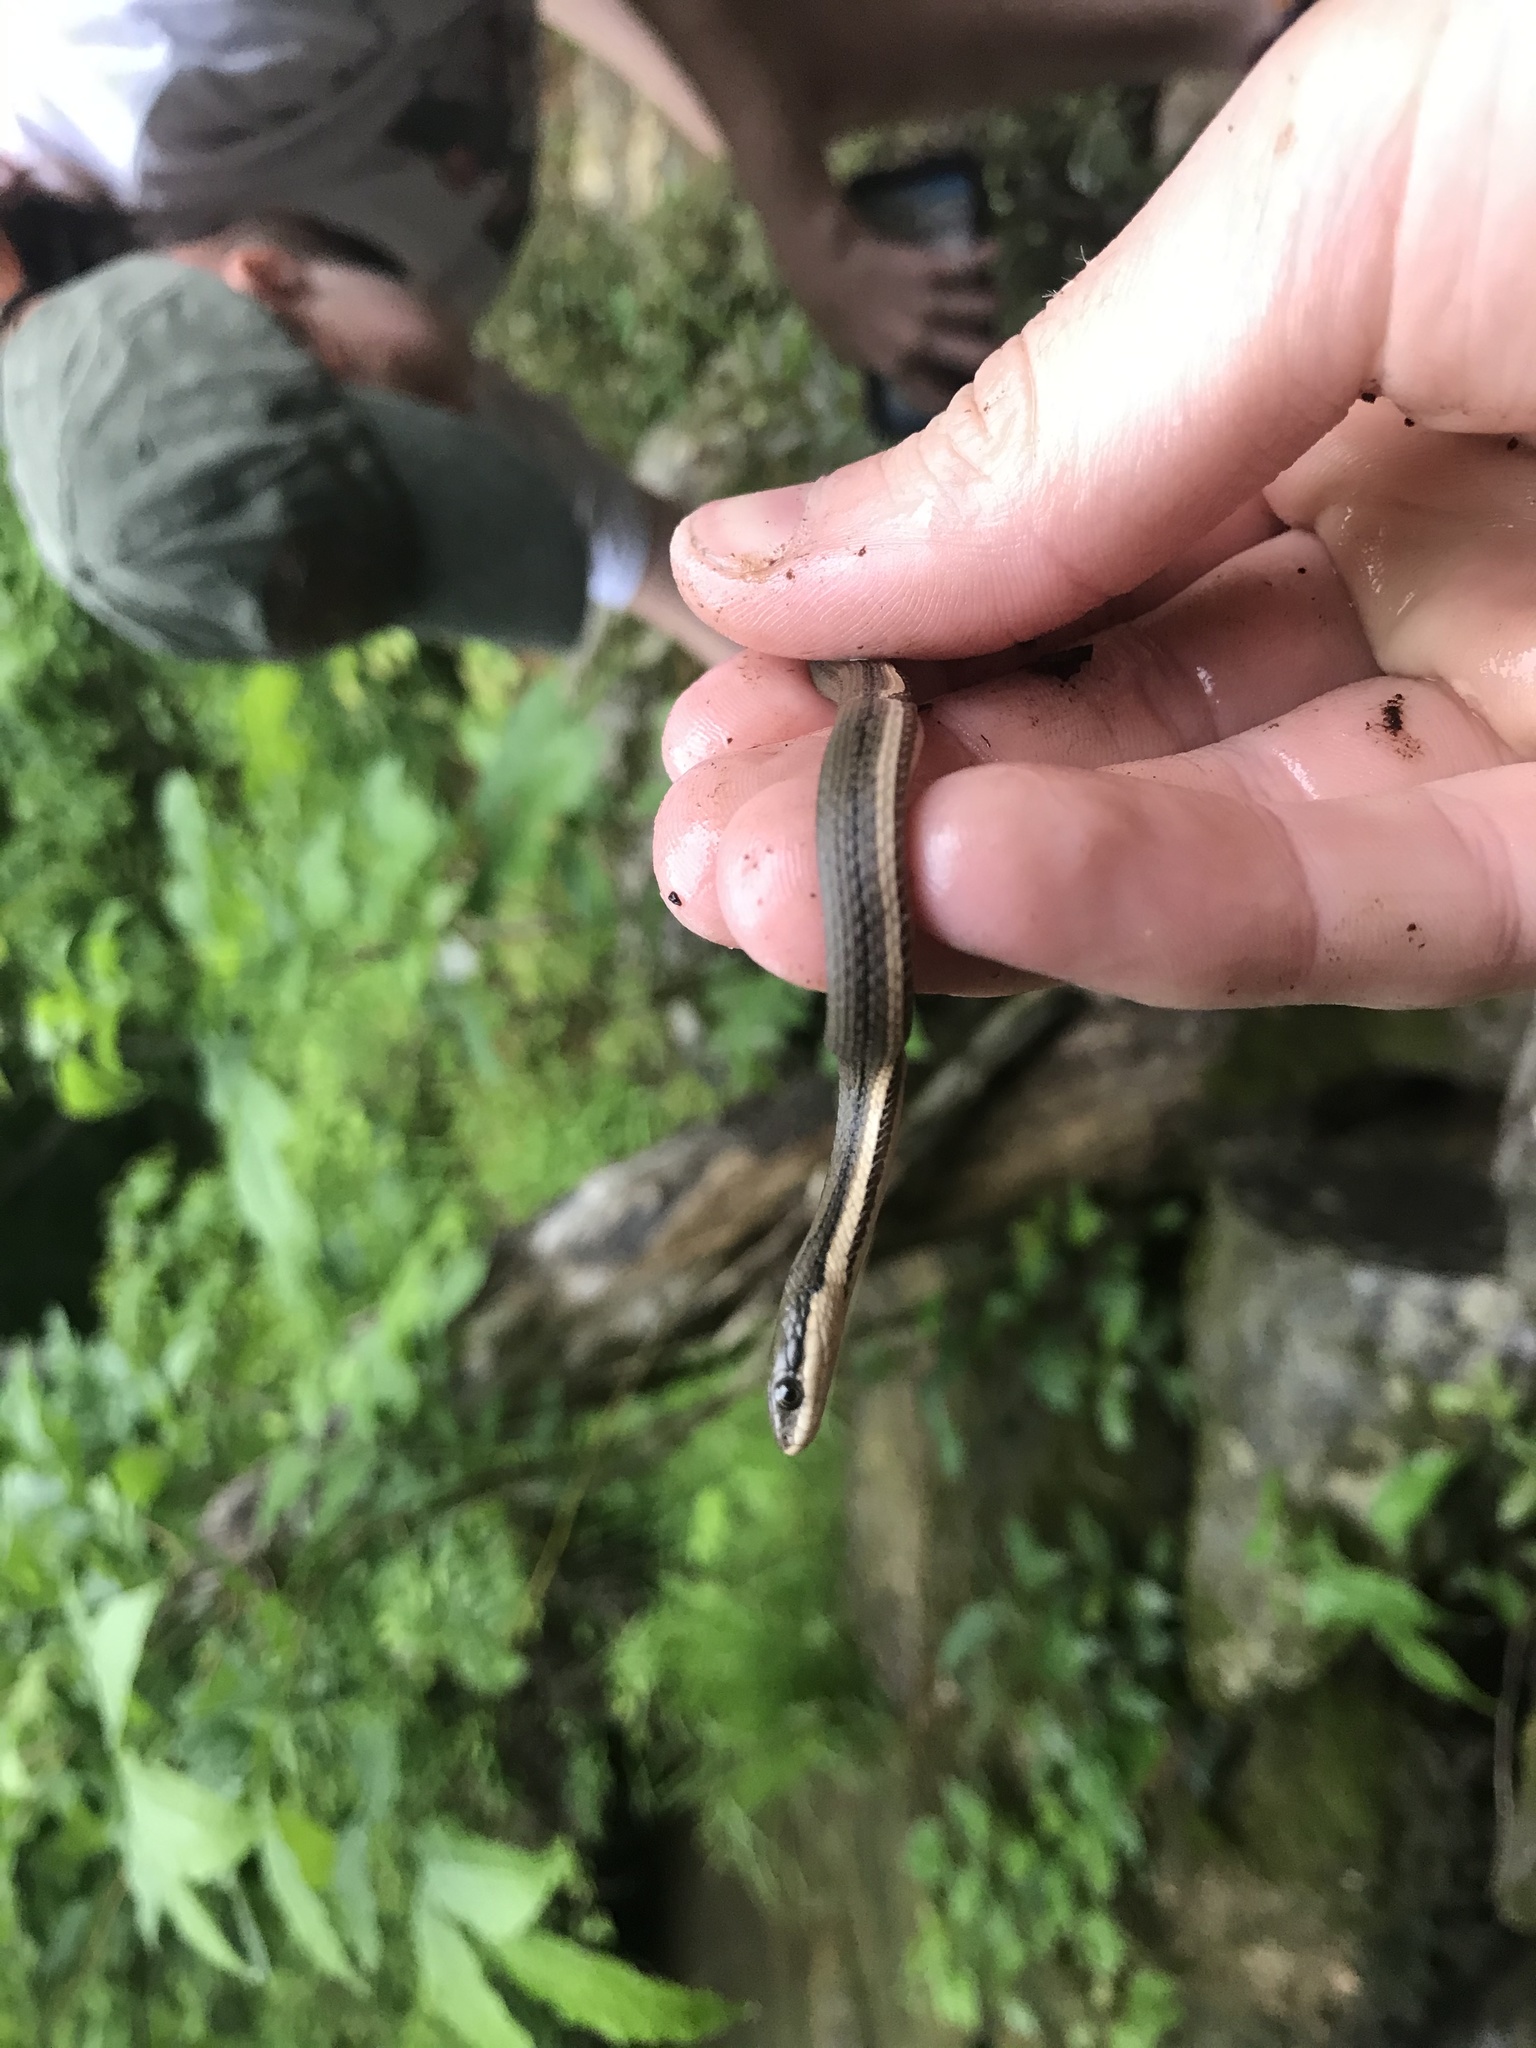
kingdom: Animalia
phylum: Chordata
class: Squamata
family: Colubridae
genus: Regina
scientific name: Regina septemvittata
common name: Queen snake
